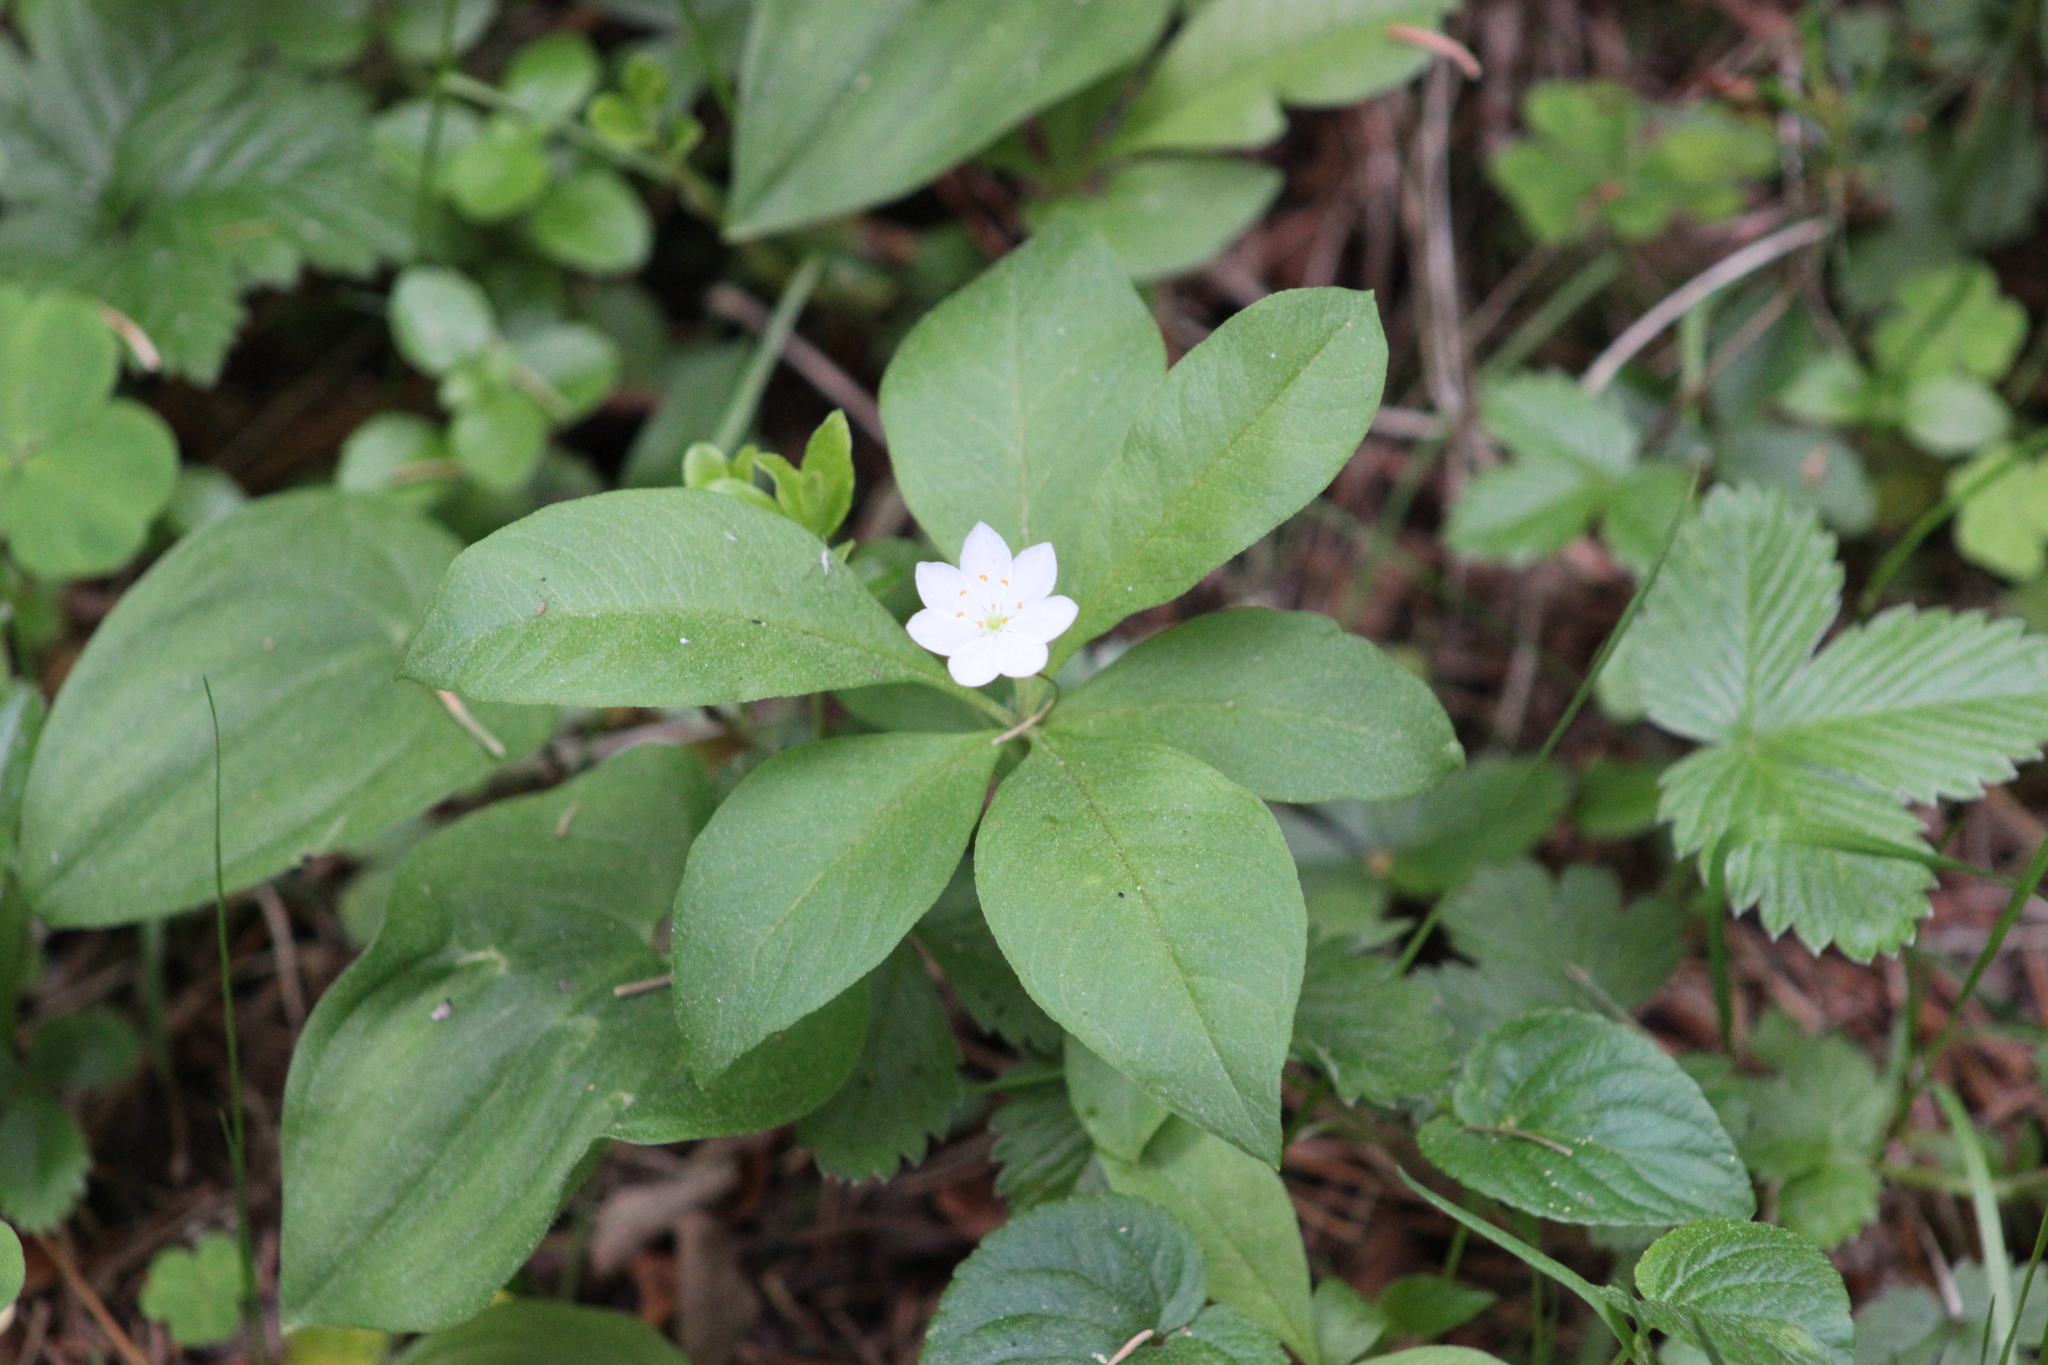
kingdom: Plantae
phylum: Tracheophyta
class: Magnoliopsida
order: Ericales
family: Primulaceae
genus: Lysimachia
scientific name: Lysimachia europaea
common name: Arctic starflower
